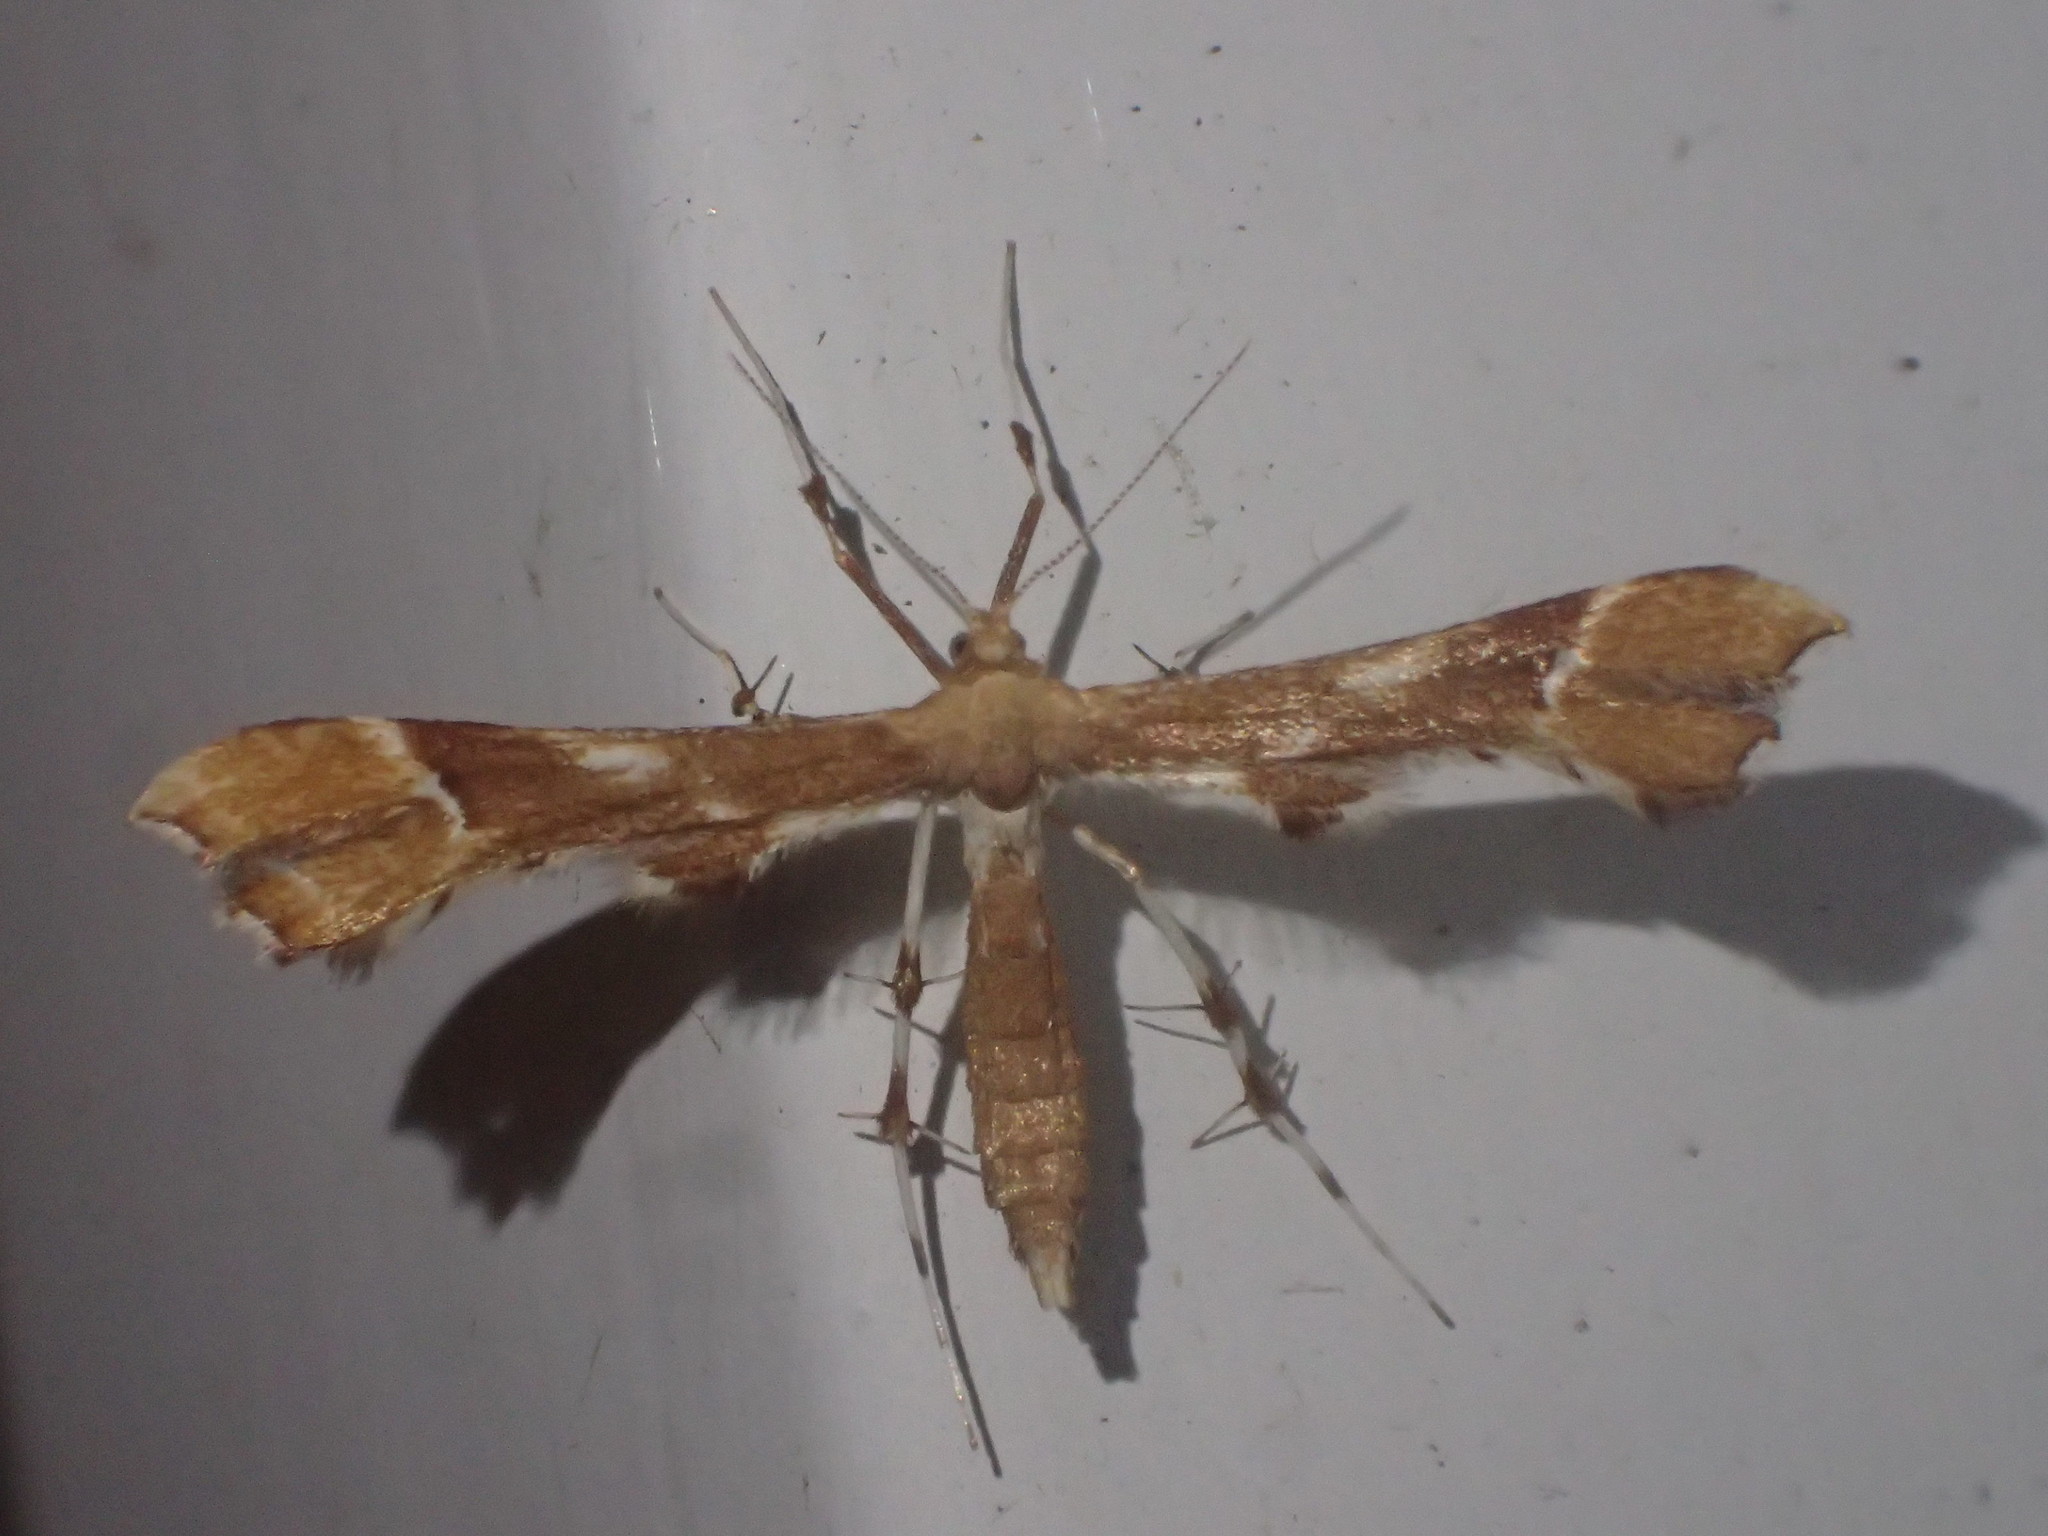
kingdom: Animalia
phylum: Arthropoda
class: Insecta
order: Lepidoptera
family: Pterophoridae
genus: Cnaemidophorus
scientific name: Cnaemidophorus rhododactyla
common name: Rose plume
